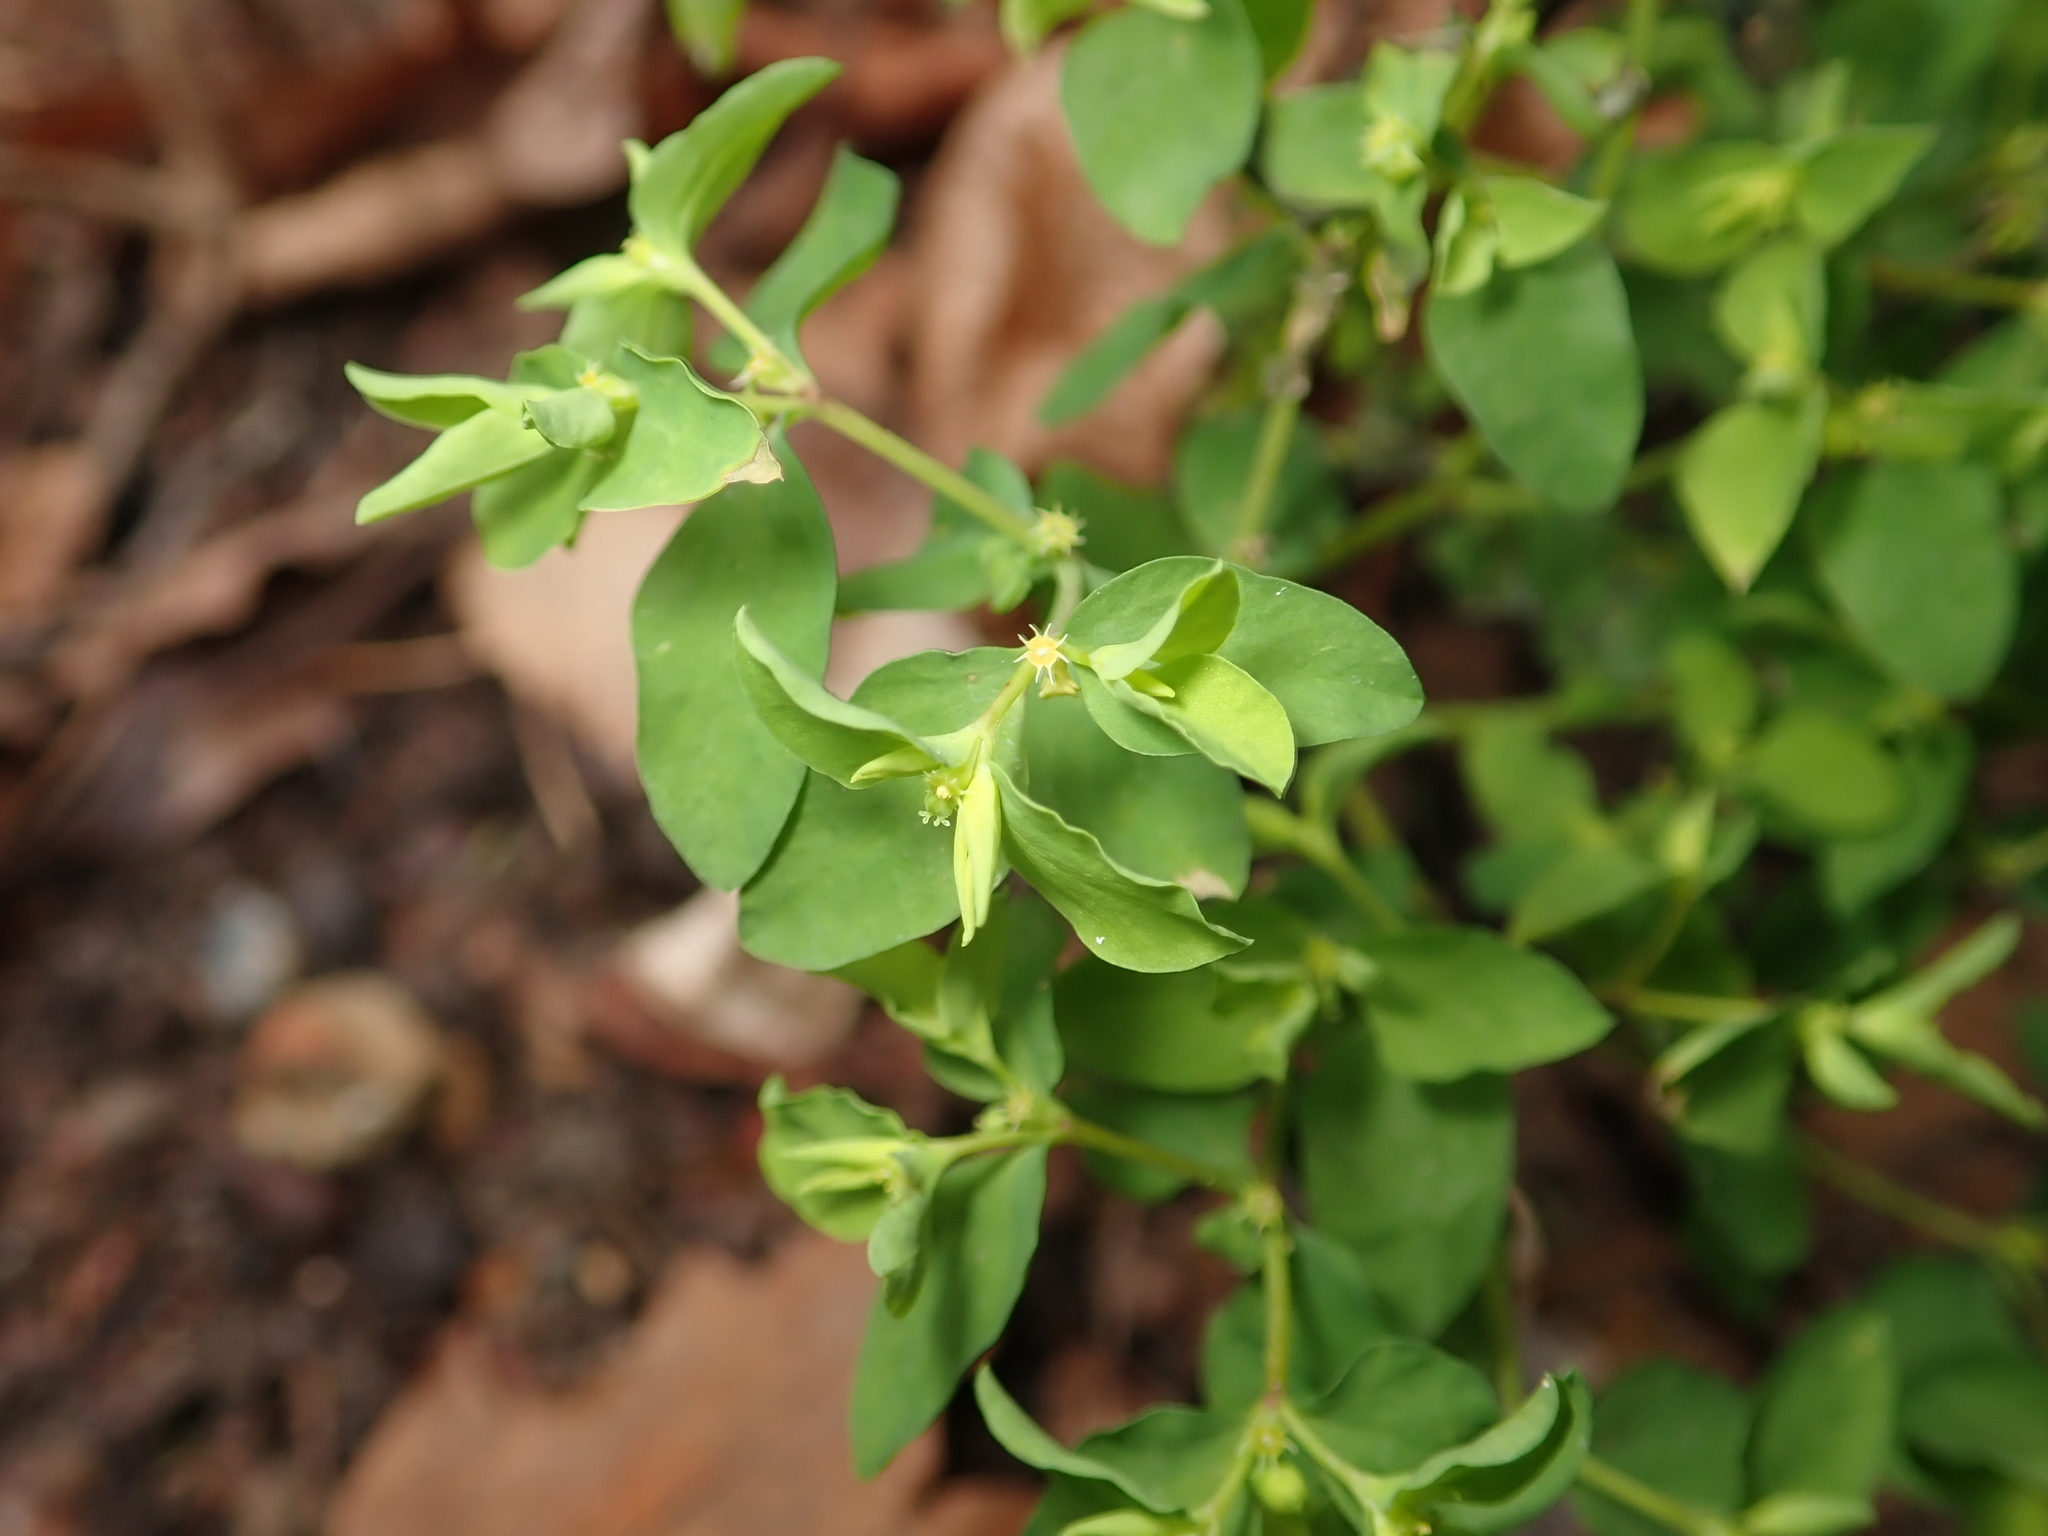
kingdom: Plantae
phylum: Tracheophyta
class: Magnoliopsida
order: Malpighiales
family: Euphorbiaceae
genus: Euphorbia
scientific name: Euphorbia peplus
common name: Petty spurge
